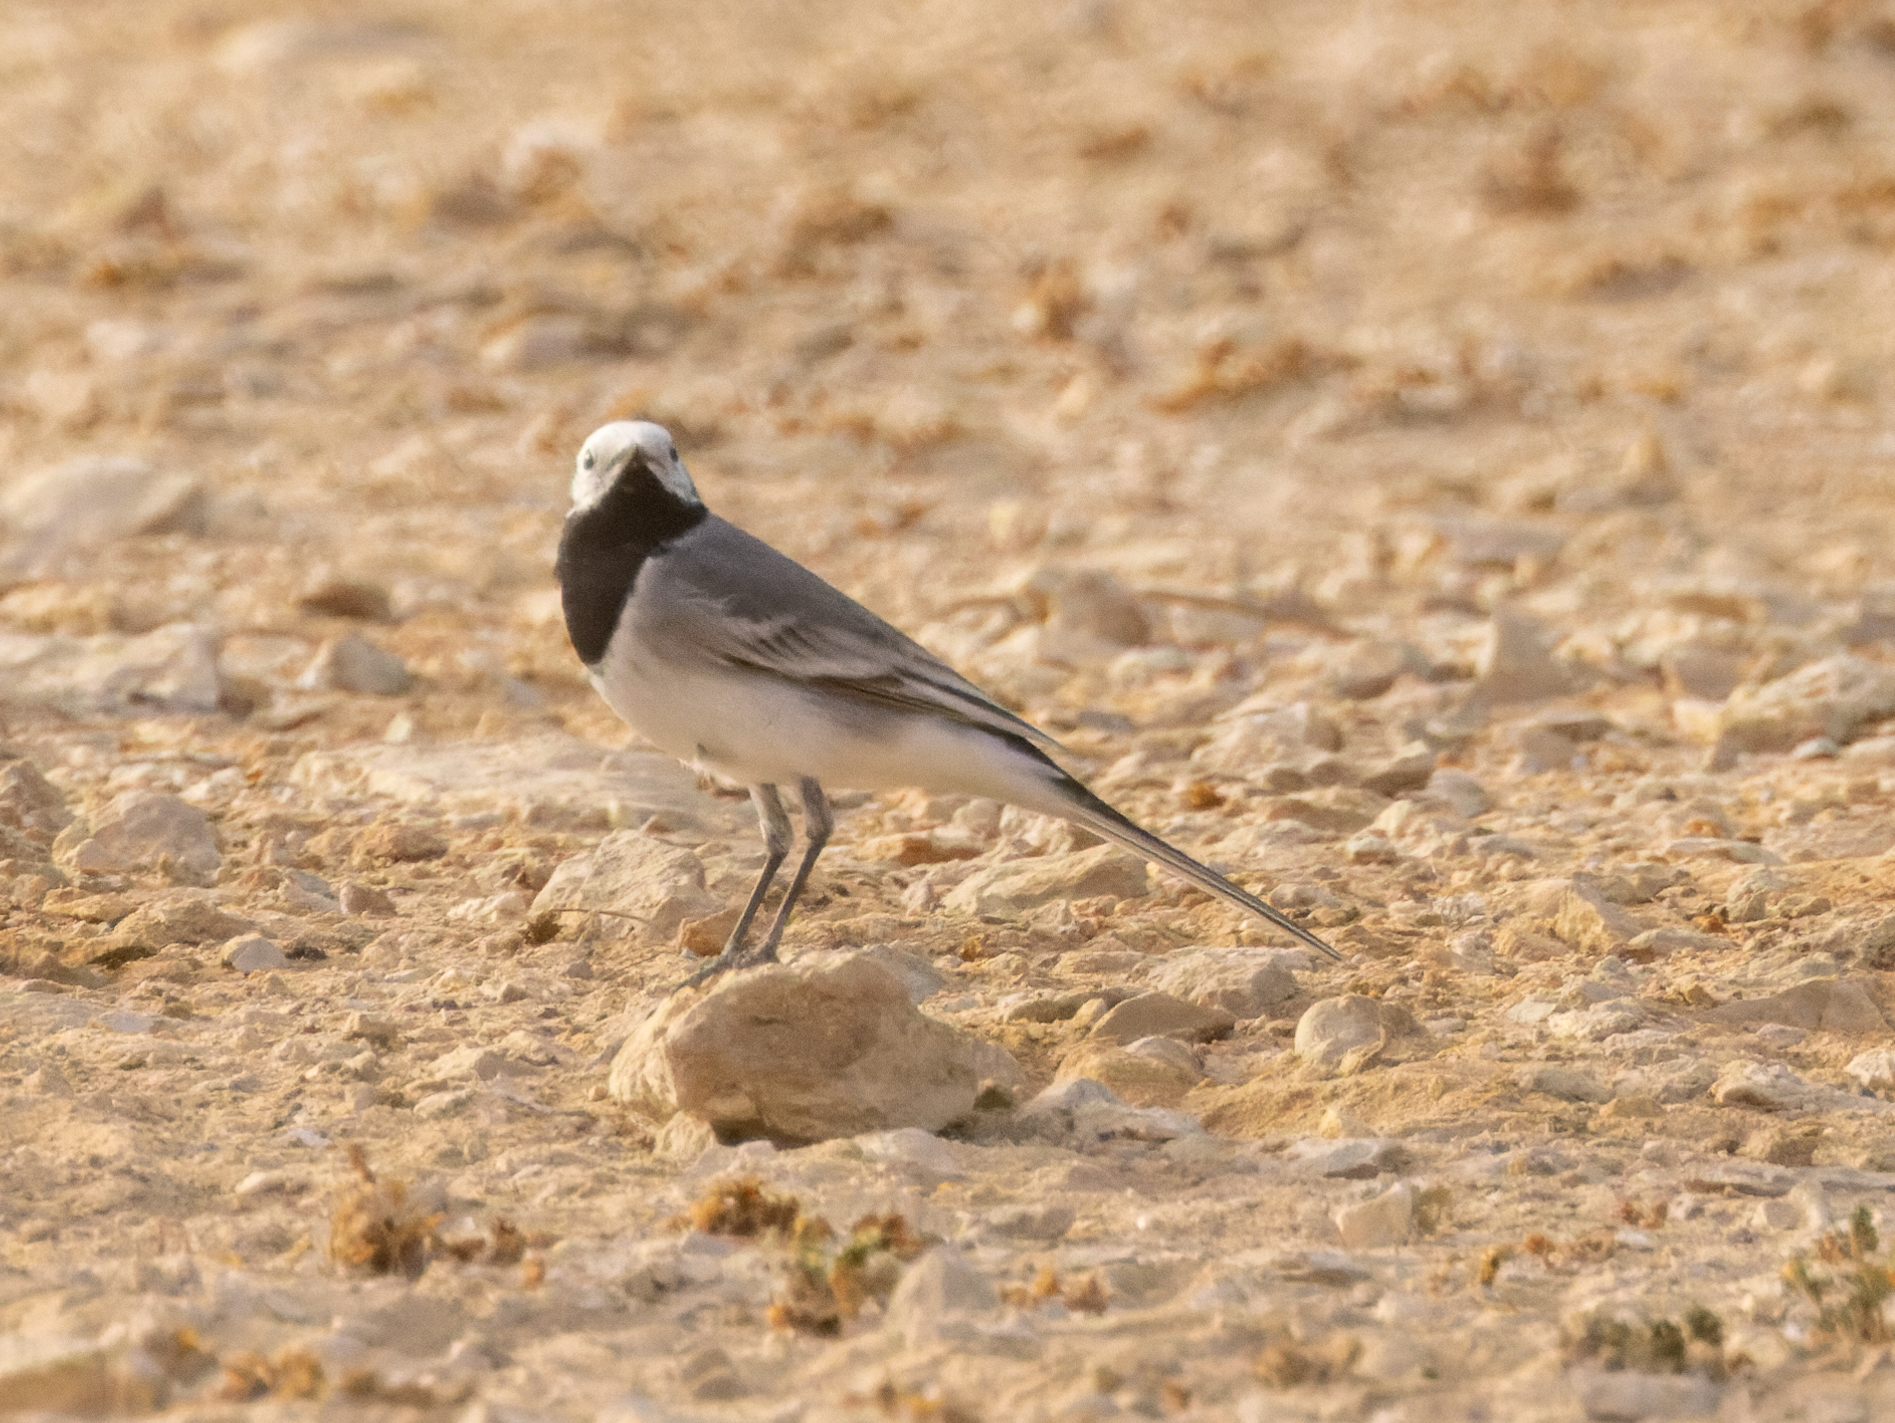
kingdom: Animalia
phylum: Chordata
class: Aves
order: Passeriformes
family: Motacillidae
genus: Motacilla
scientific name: Motacilla alba
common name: White wagtail
